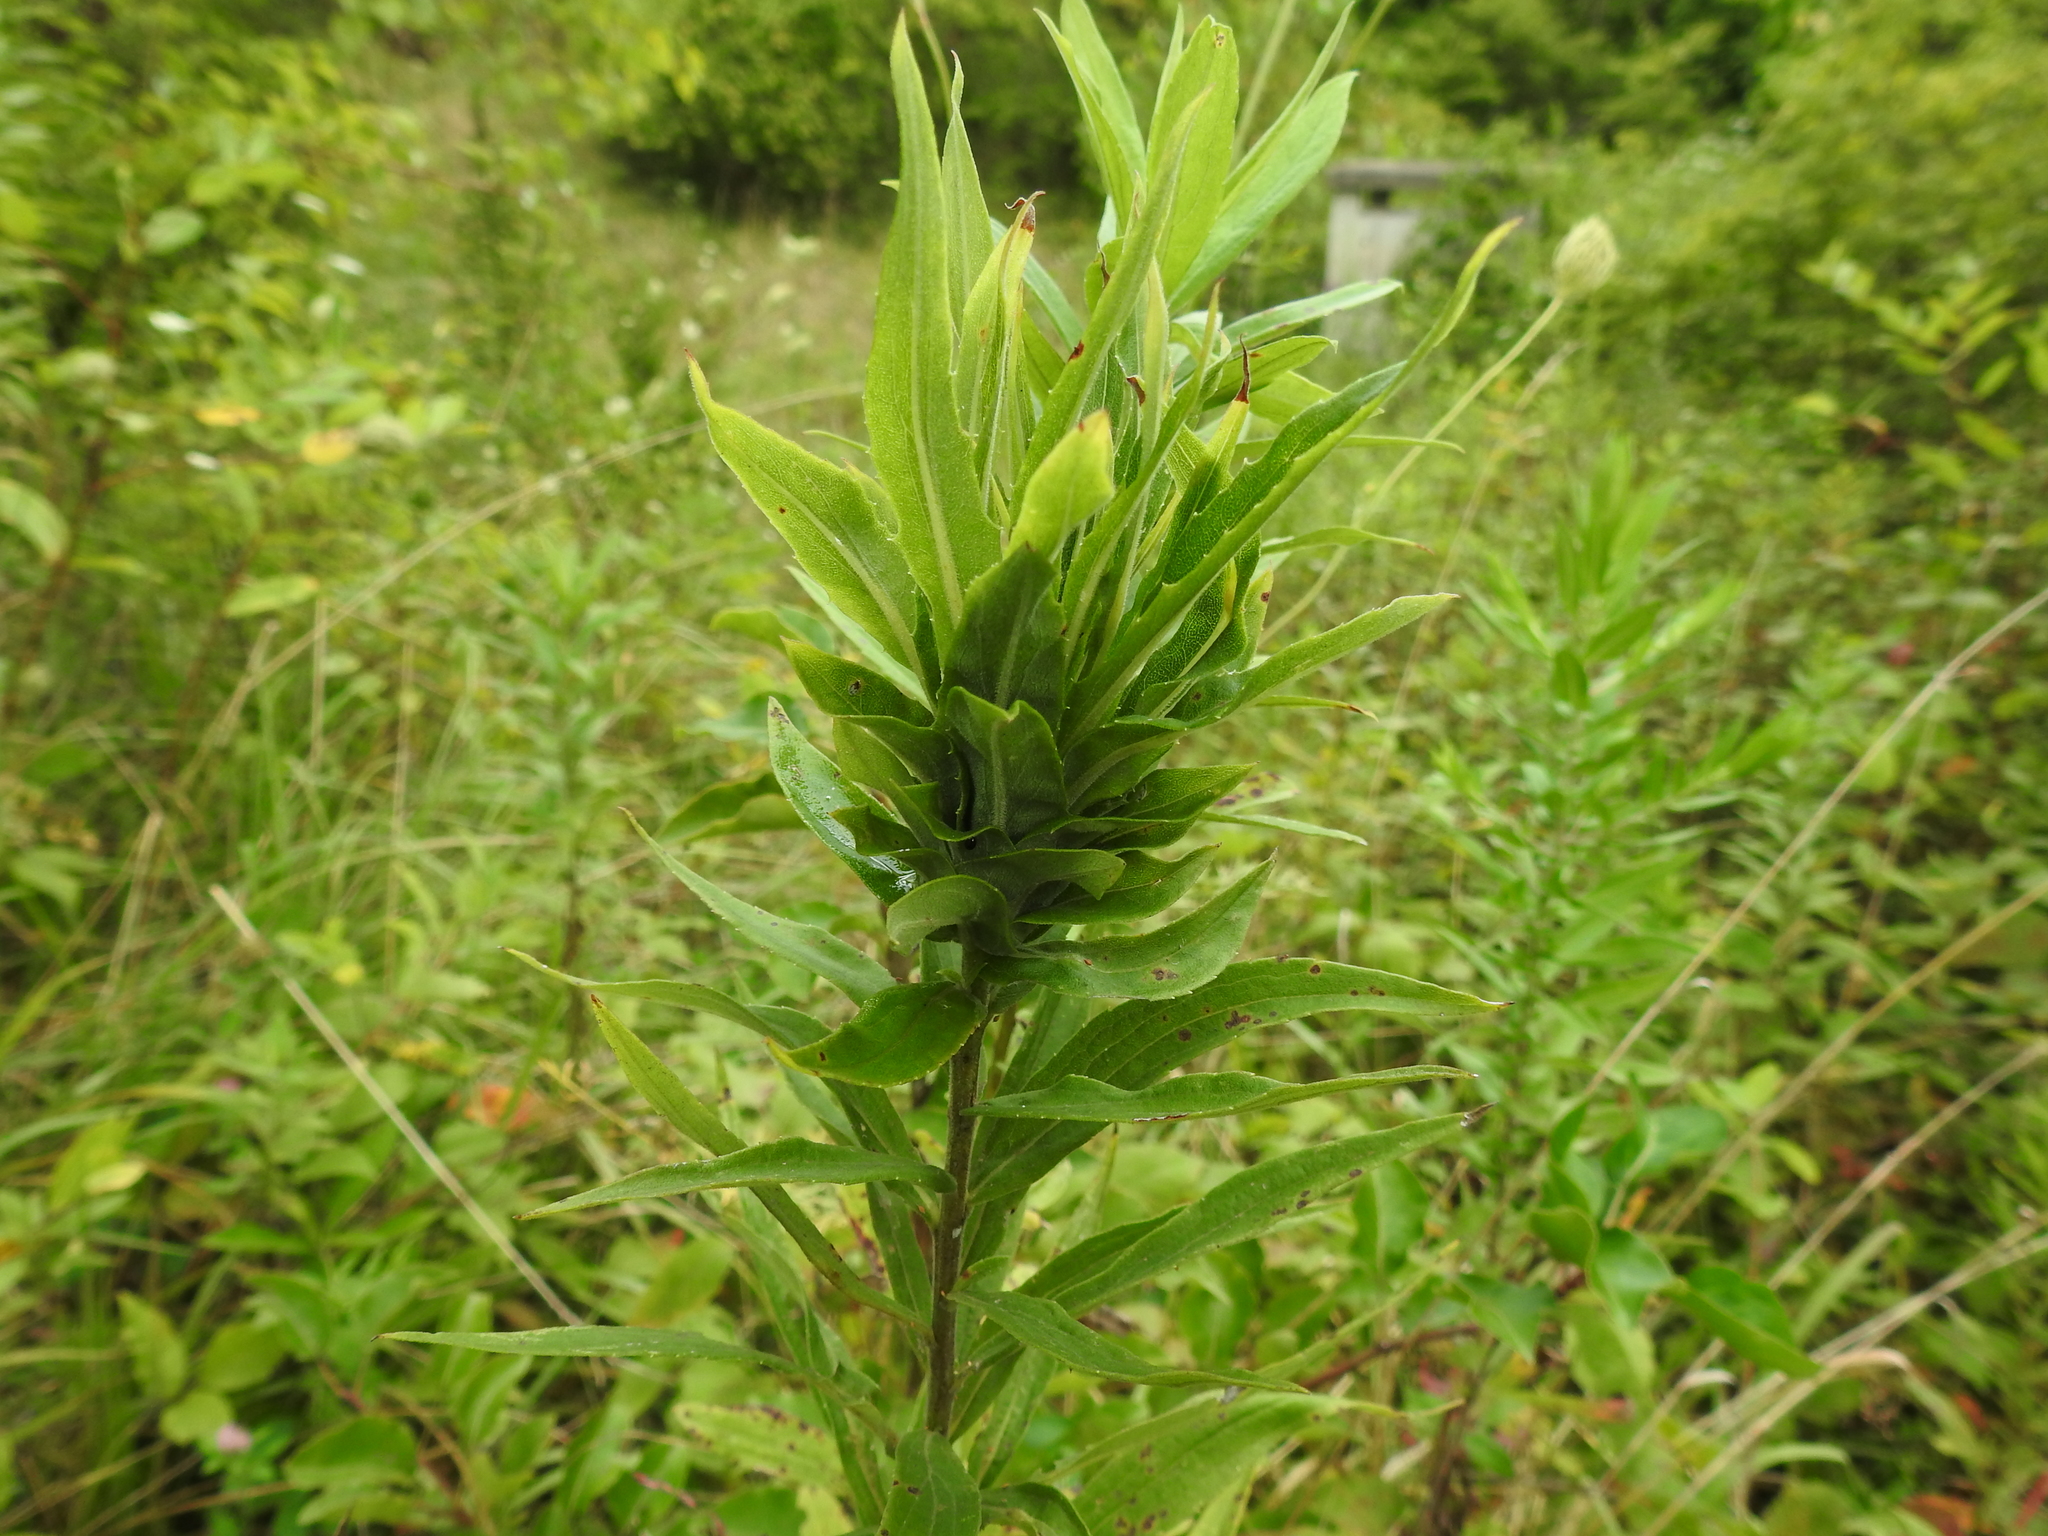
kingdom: Animalia
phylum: Arthropoda
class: Insecta
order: Diptera
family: Cecidomyiidae
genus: Rhopalomyia
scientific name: Rhopalomyia solidaginis
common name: Goldenrod bunch gall midge
